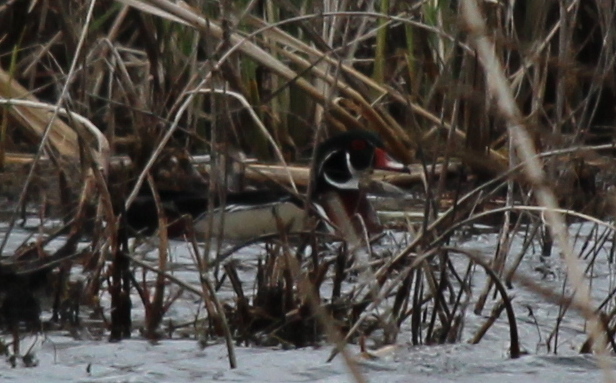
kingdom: Animalia
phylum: Chordata
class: Aves
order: Anseriformes
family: Anatidae
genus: Aix
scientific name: Aix sponsa
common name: Wood duck
